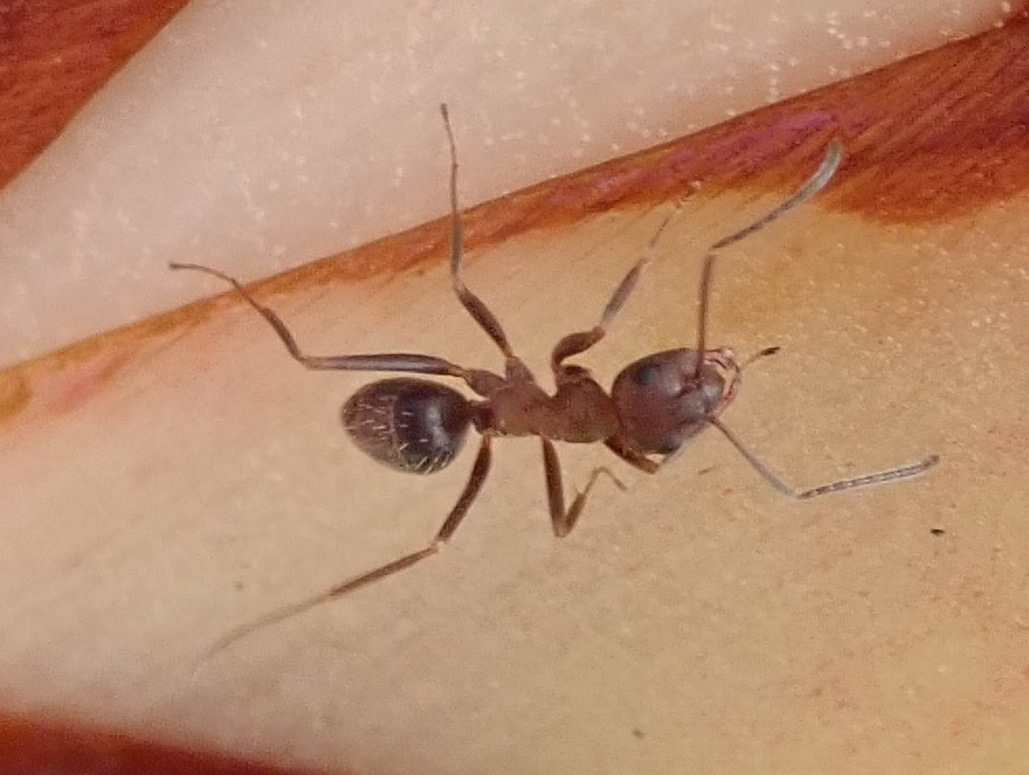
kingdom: Animalia
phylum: Arthropoda
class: Insecta
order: Hymenoptera
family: Formicidae
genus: Anoplolepis
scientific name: Anoplolepis rufescens
